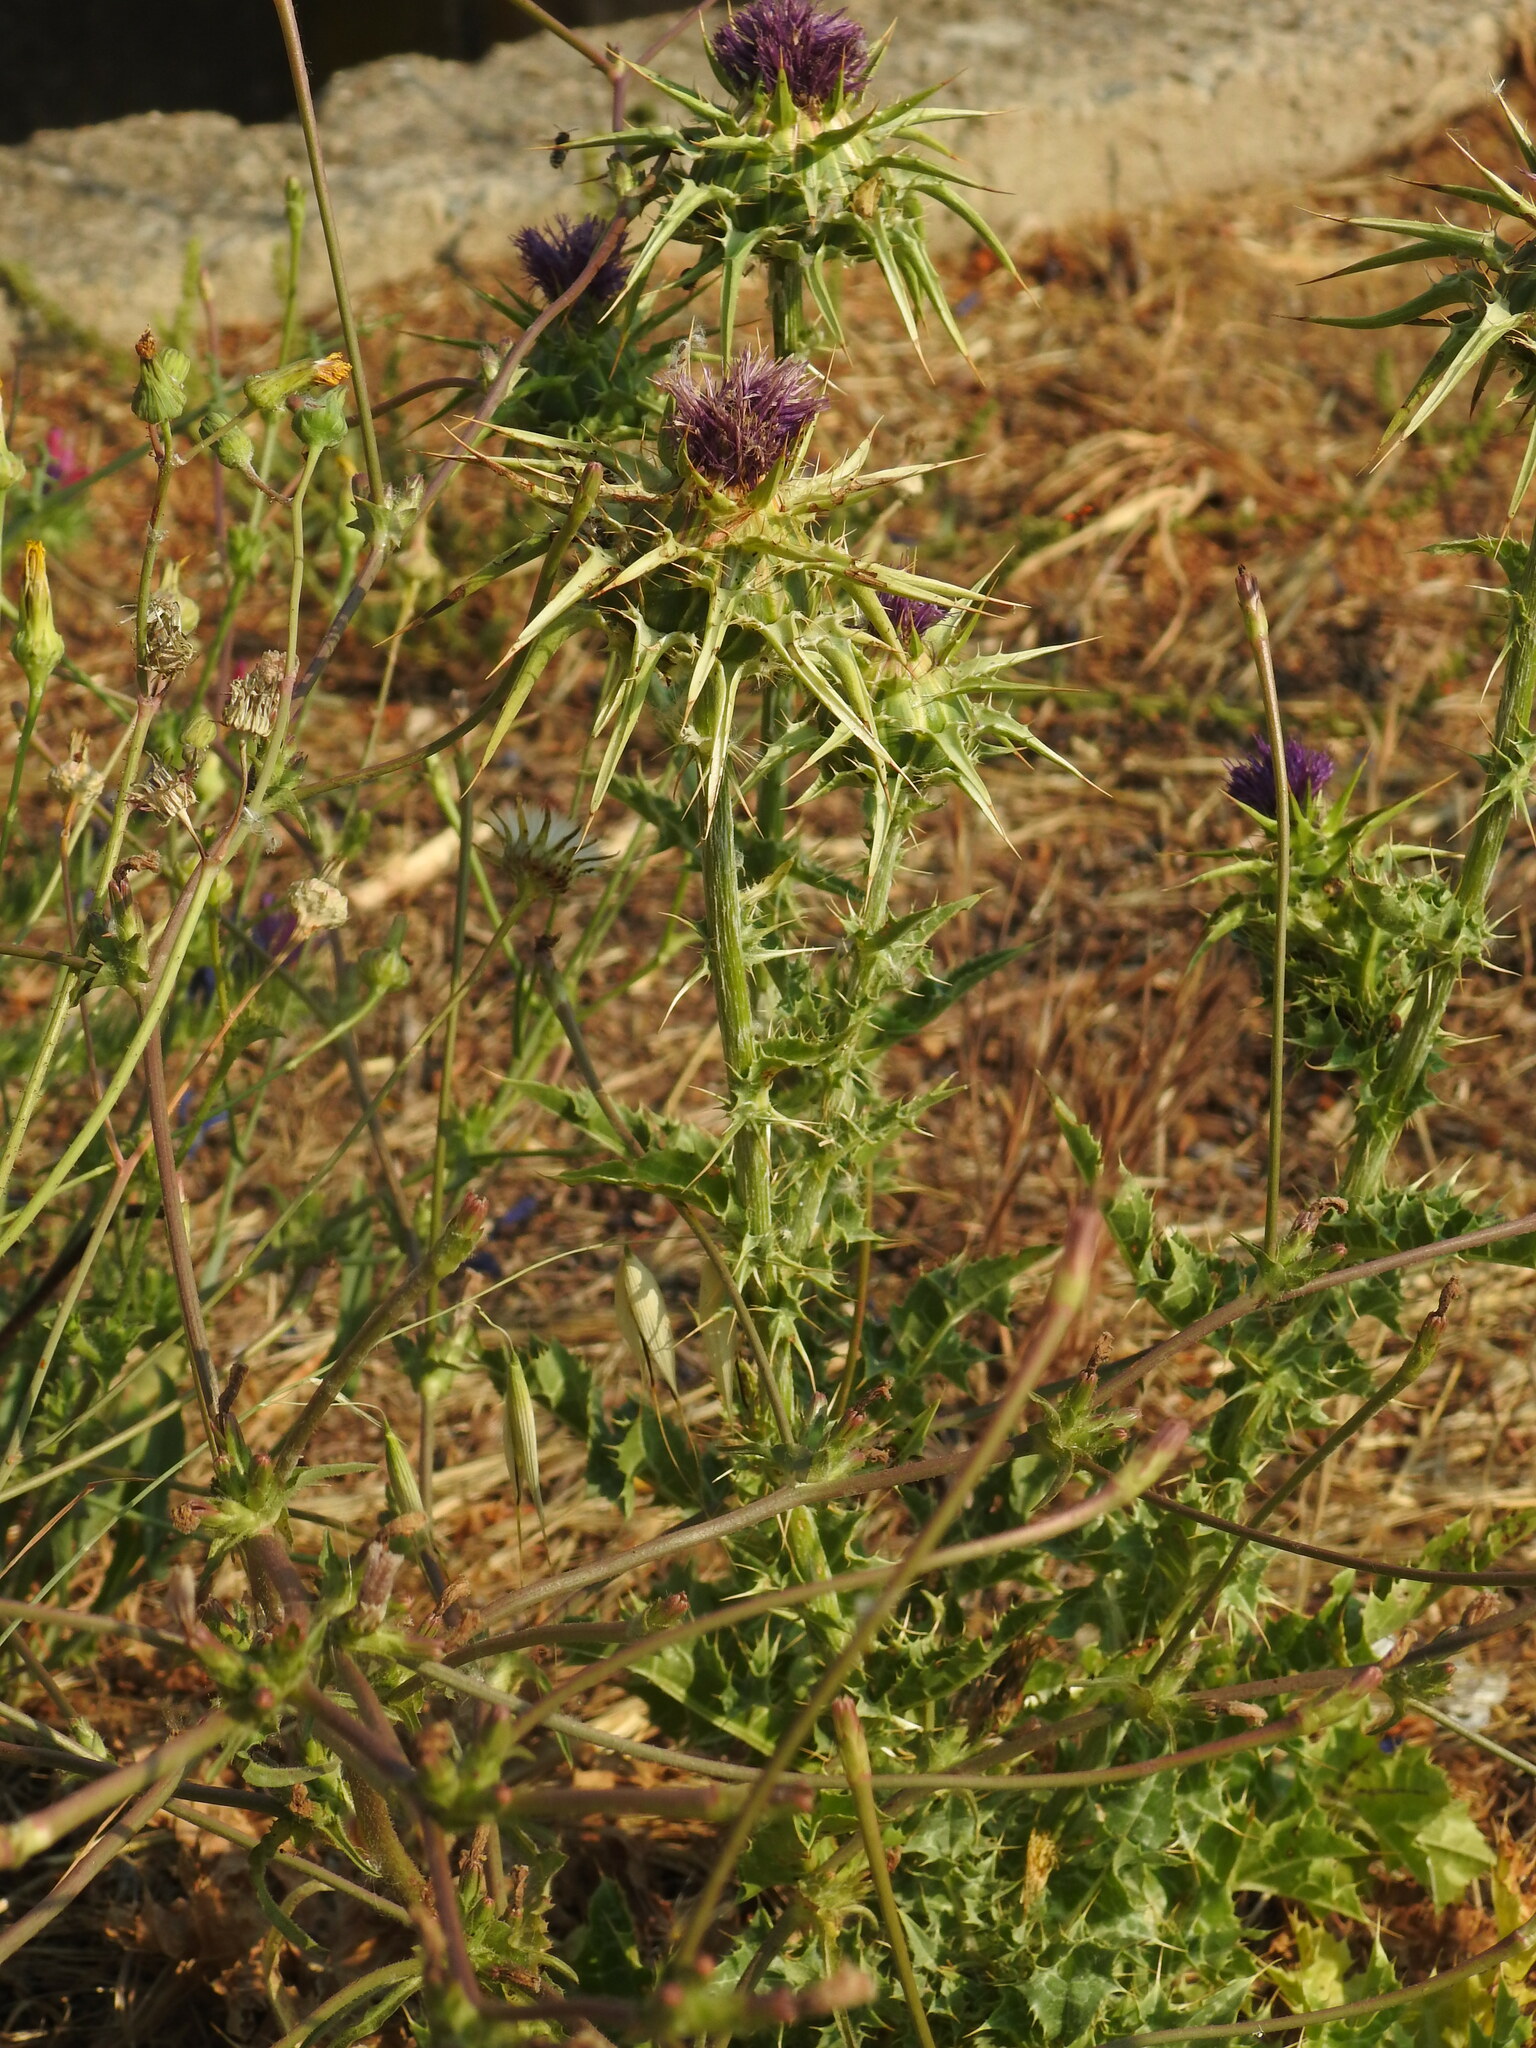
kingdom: Plantae
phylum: Tracheophyta
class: Magnoliopsida
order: Asterales
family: Asteraceae
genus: Silybum
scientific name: Silybum marianum
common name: Milk thistle
